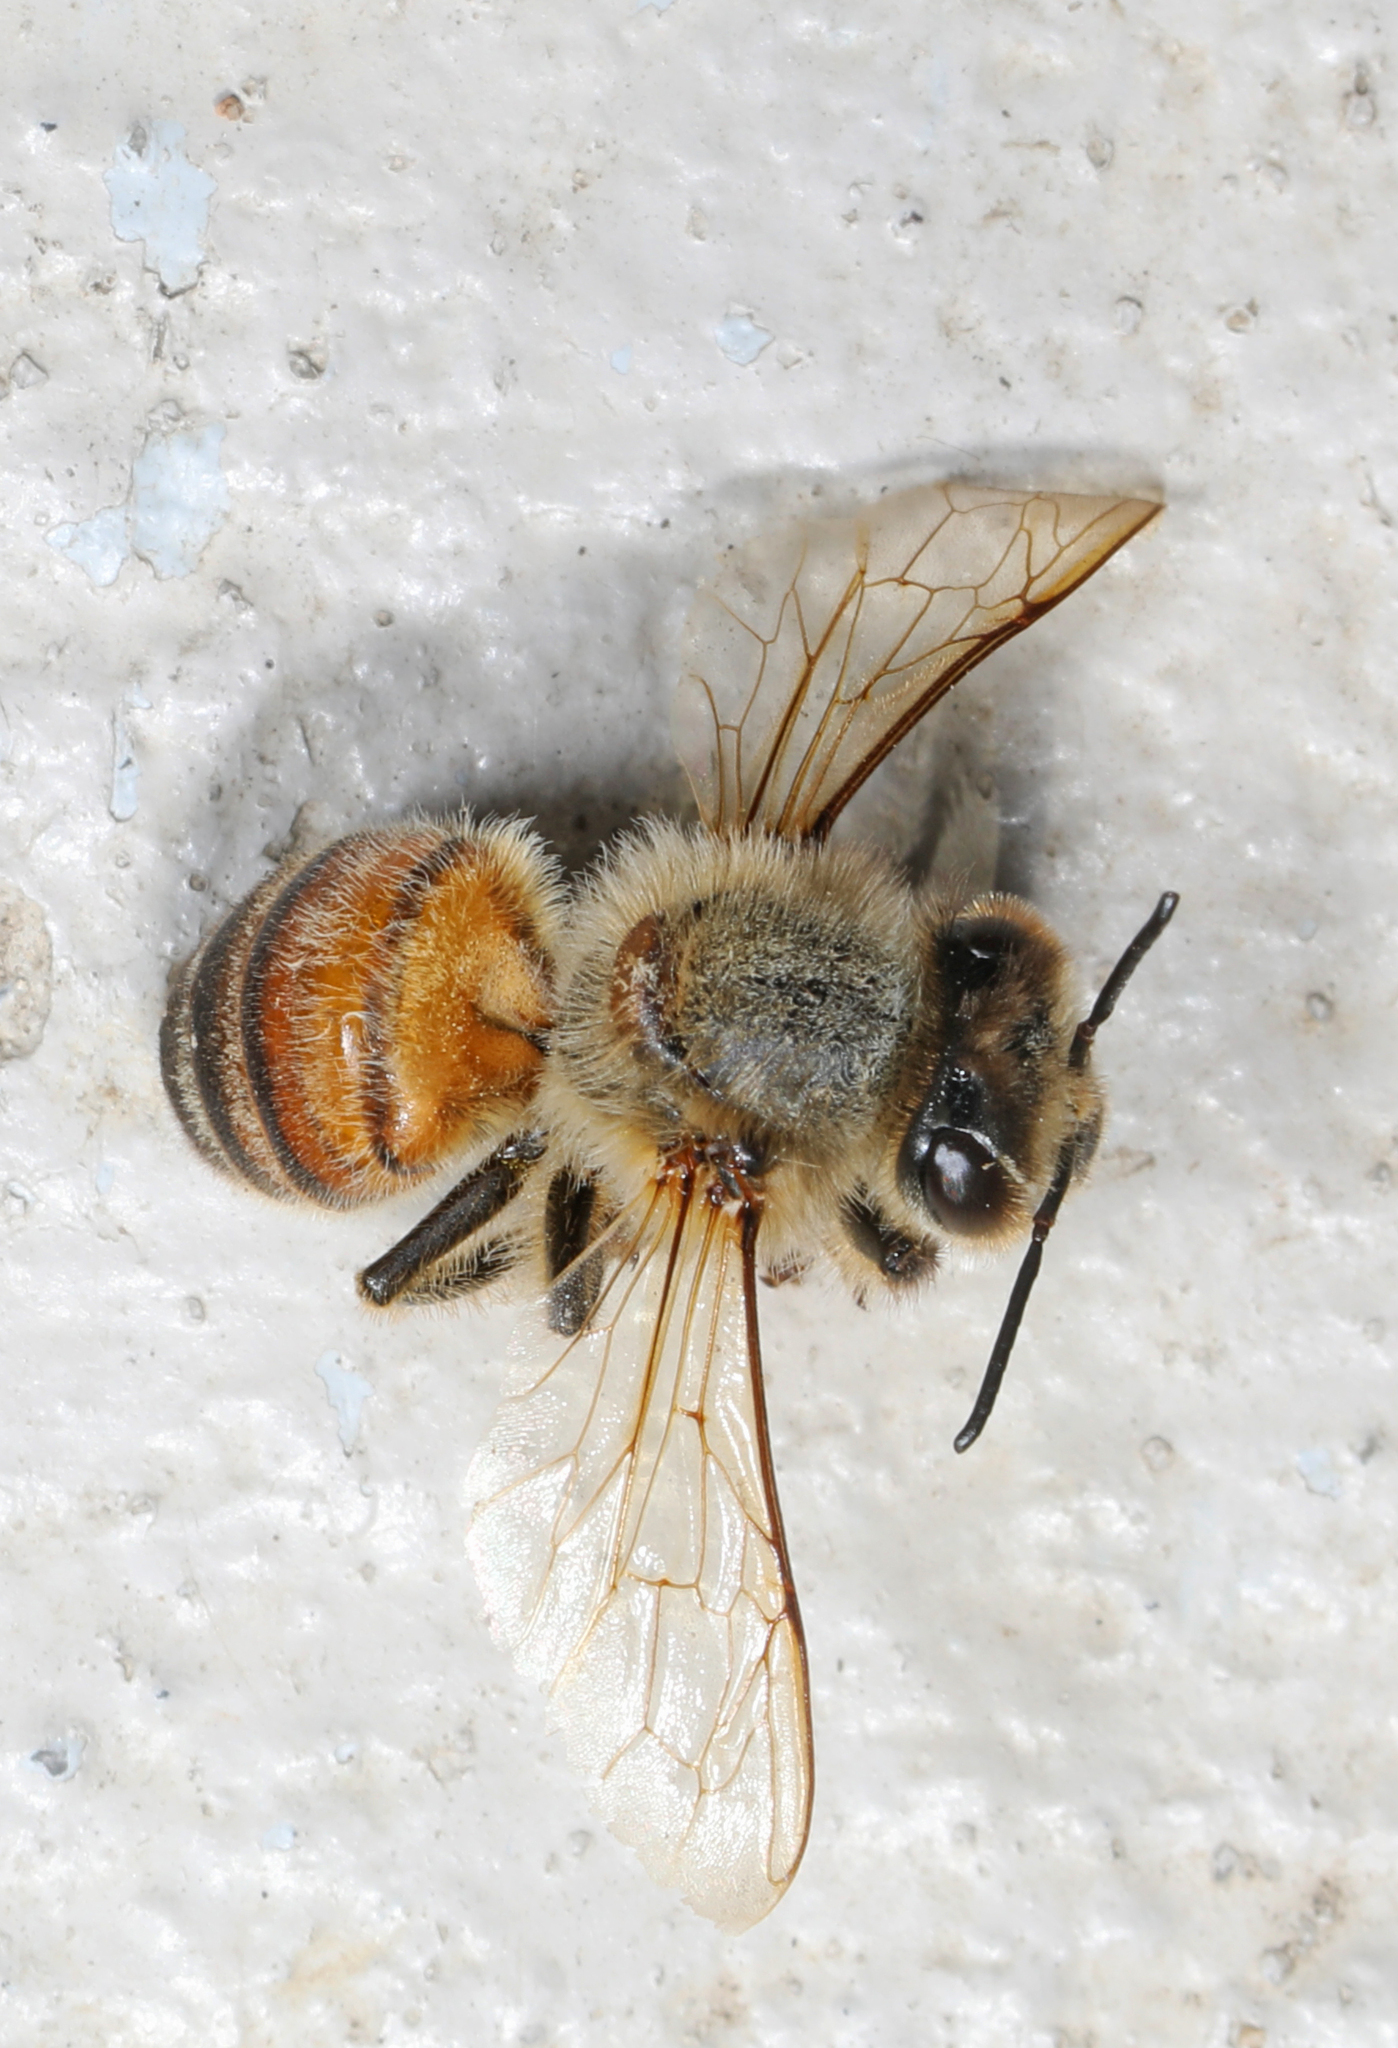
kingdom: Animalia
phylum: Arthropoda
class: Insecta
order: Hymenoptera
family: Apidae
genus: Apis
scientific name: Apis mellifera
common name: Honey bee
